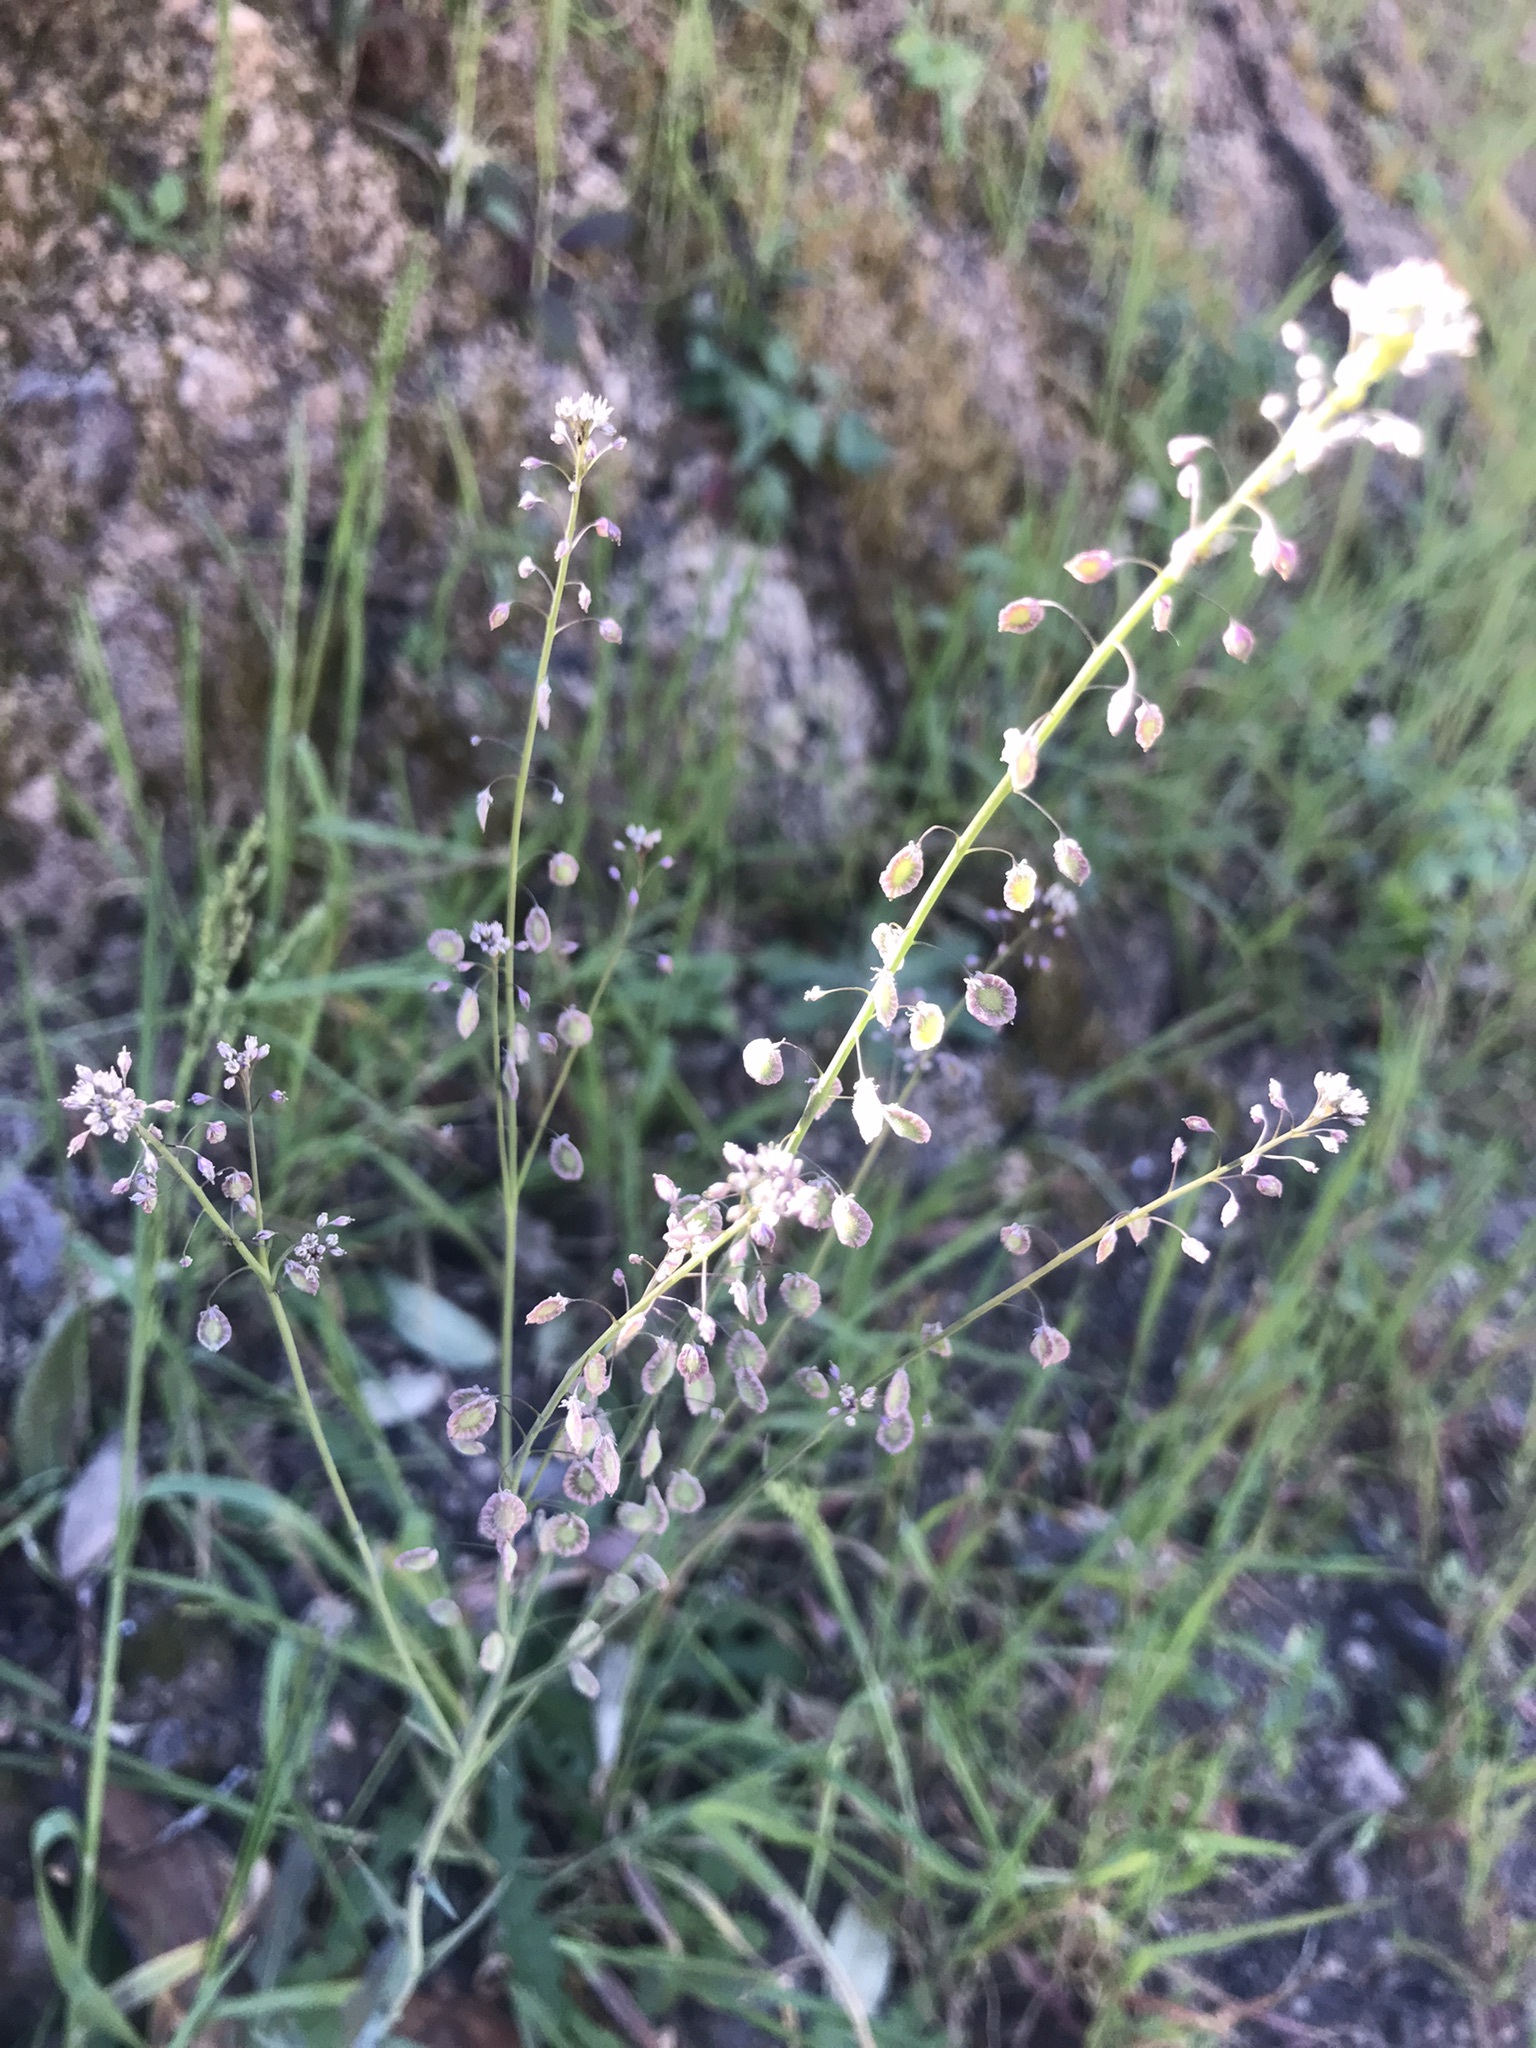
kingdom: Plantae
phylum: Tracheophyta
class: Magnoliopsida
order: Brassicales
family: Brassicaceae
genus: Thysanocarpus
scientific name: Thysanocarpus curvipes
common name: Sand fringepod
